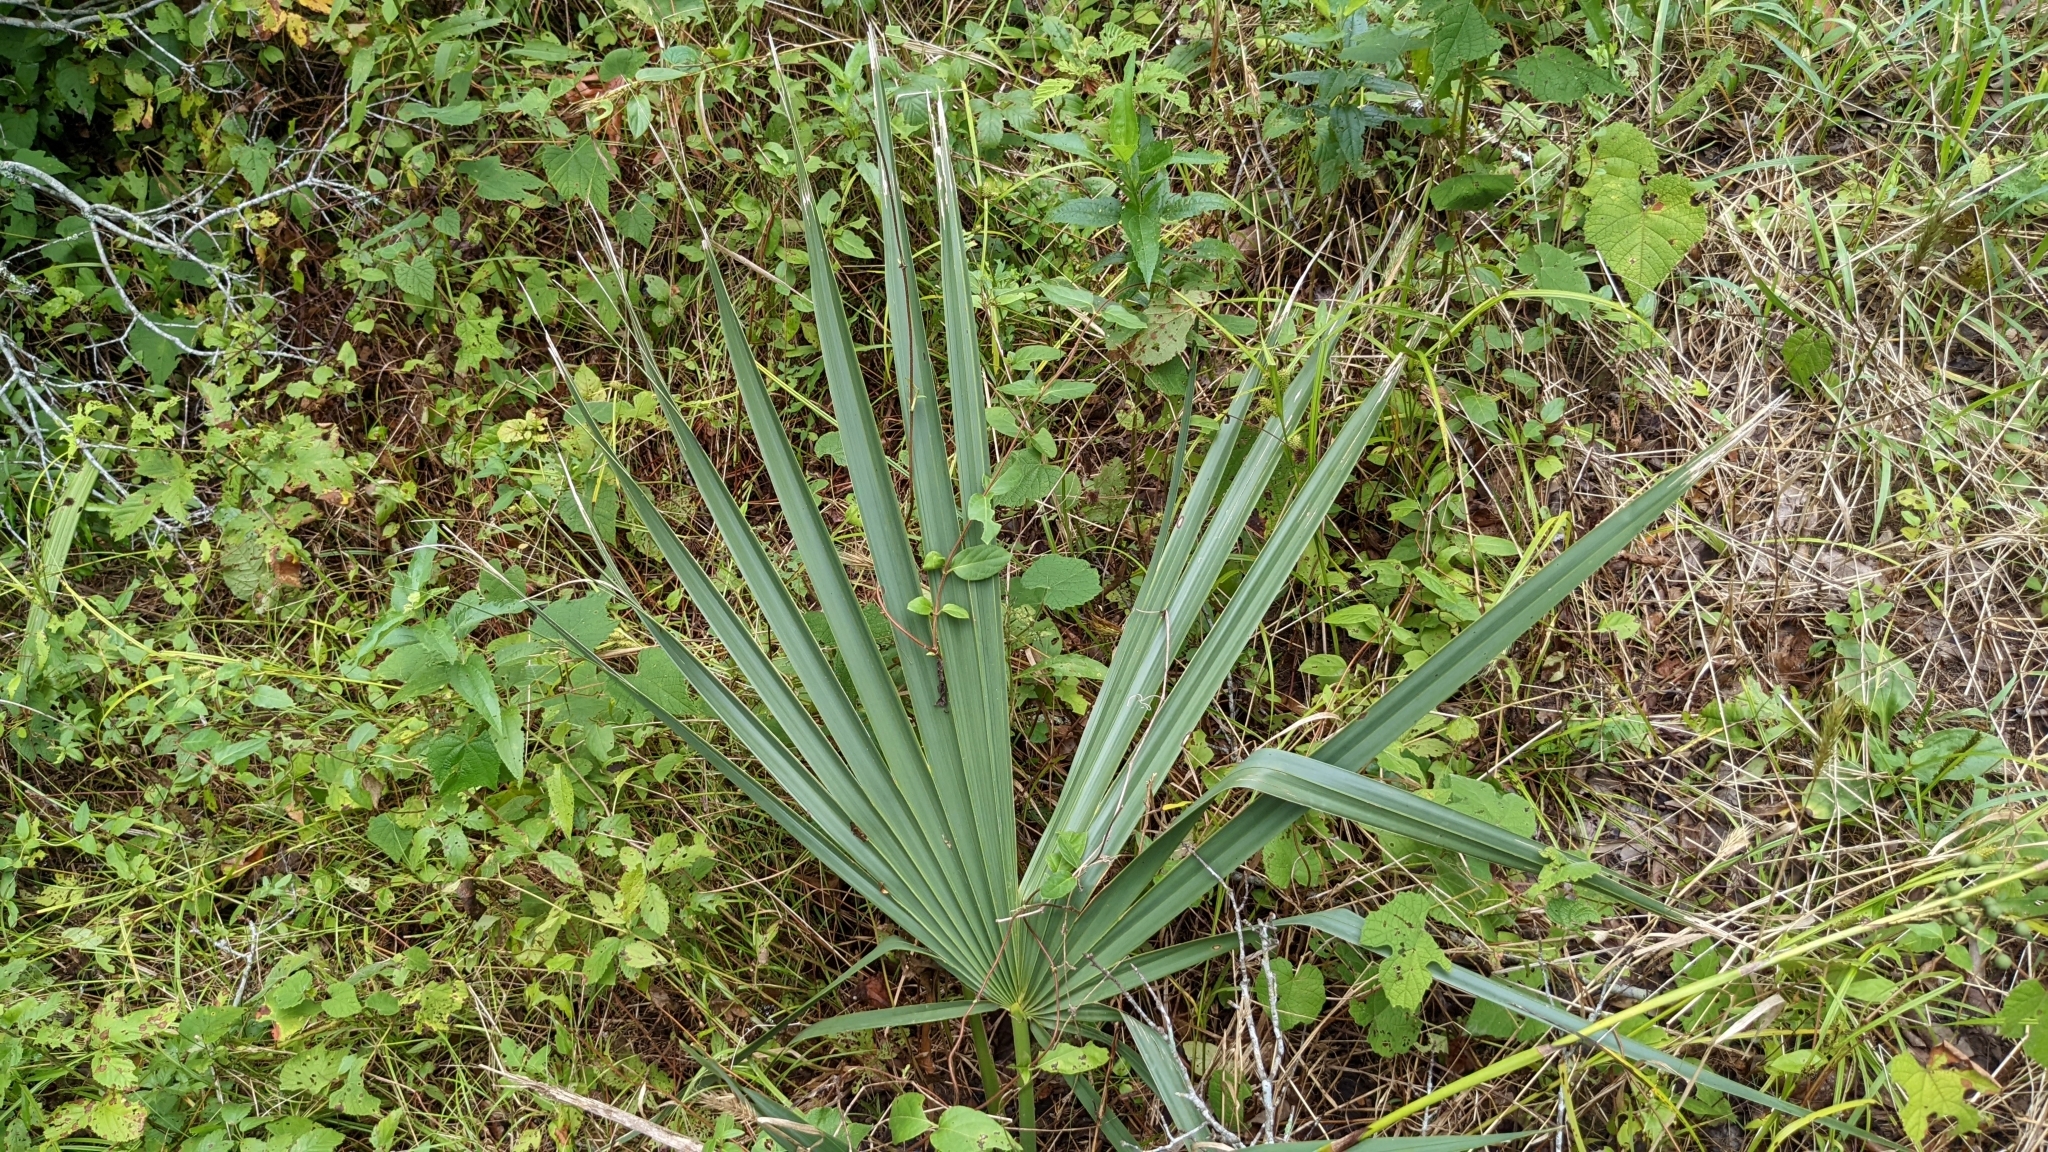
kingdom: Plantae
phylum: Tracheophyta
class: Liliopsida
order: Arecales
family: Arecaceae
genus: Sabal
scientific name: Sabal minor
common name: Dwarf palmetto
